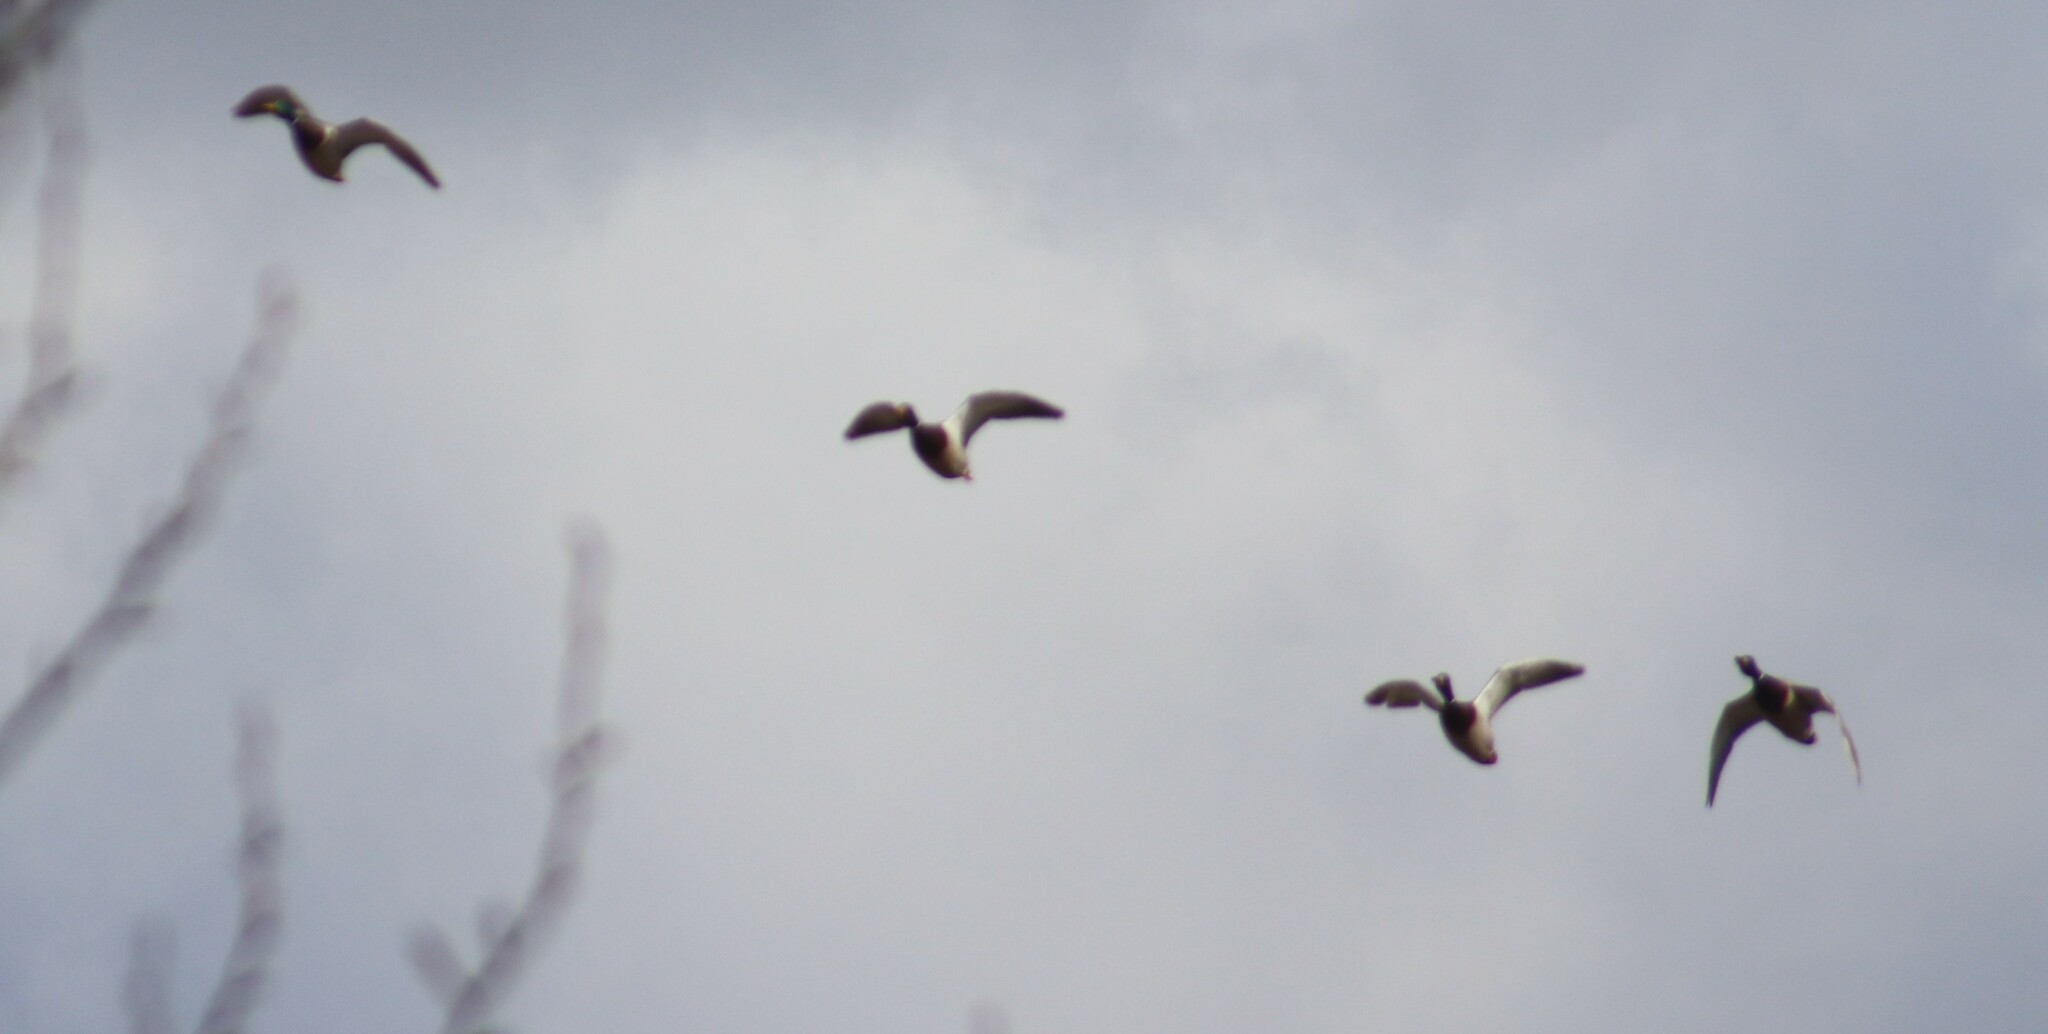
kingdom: Animalia
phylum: Chordata
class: Aves
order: Anseriformes
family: Anatidae
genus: Anas
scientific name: Anas platyrhynchos
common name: Mallard
